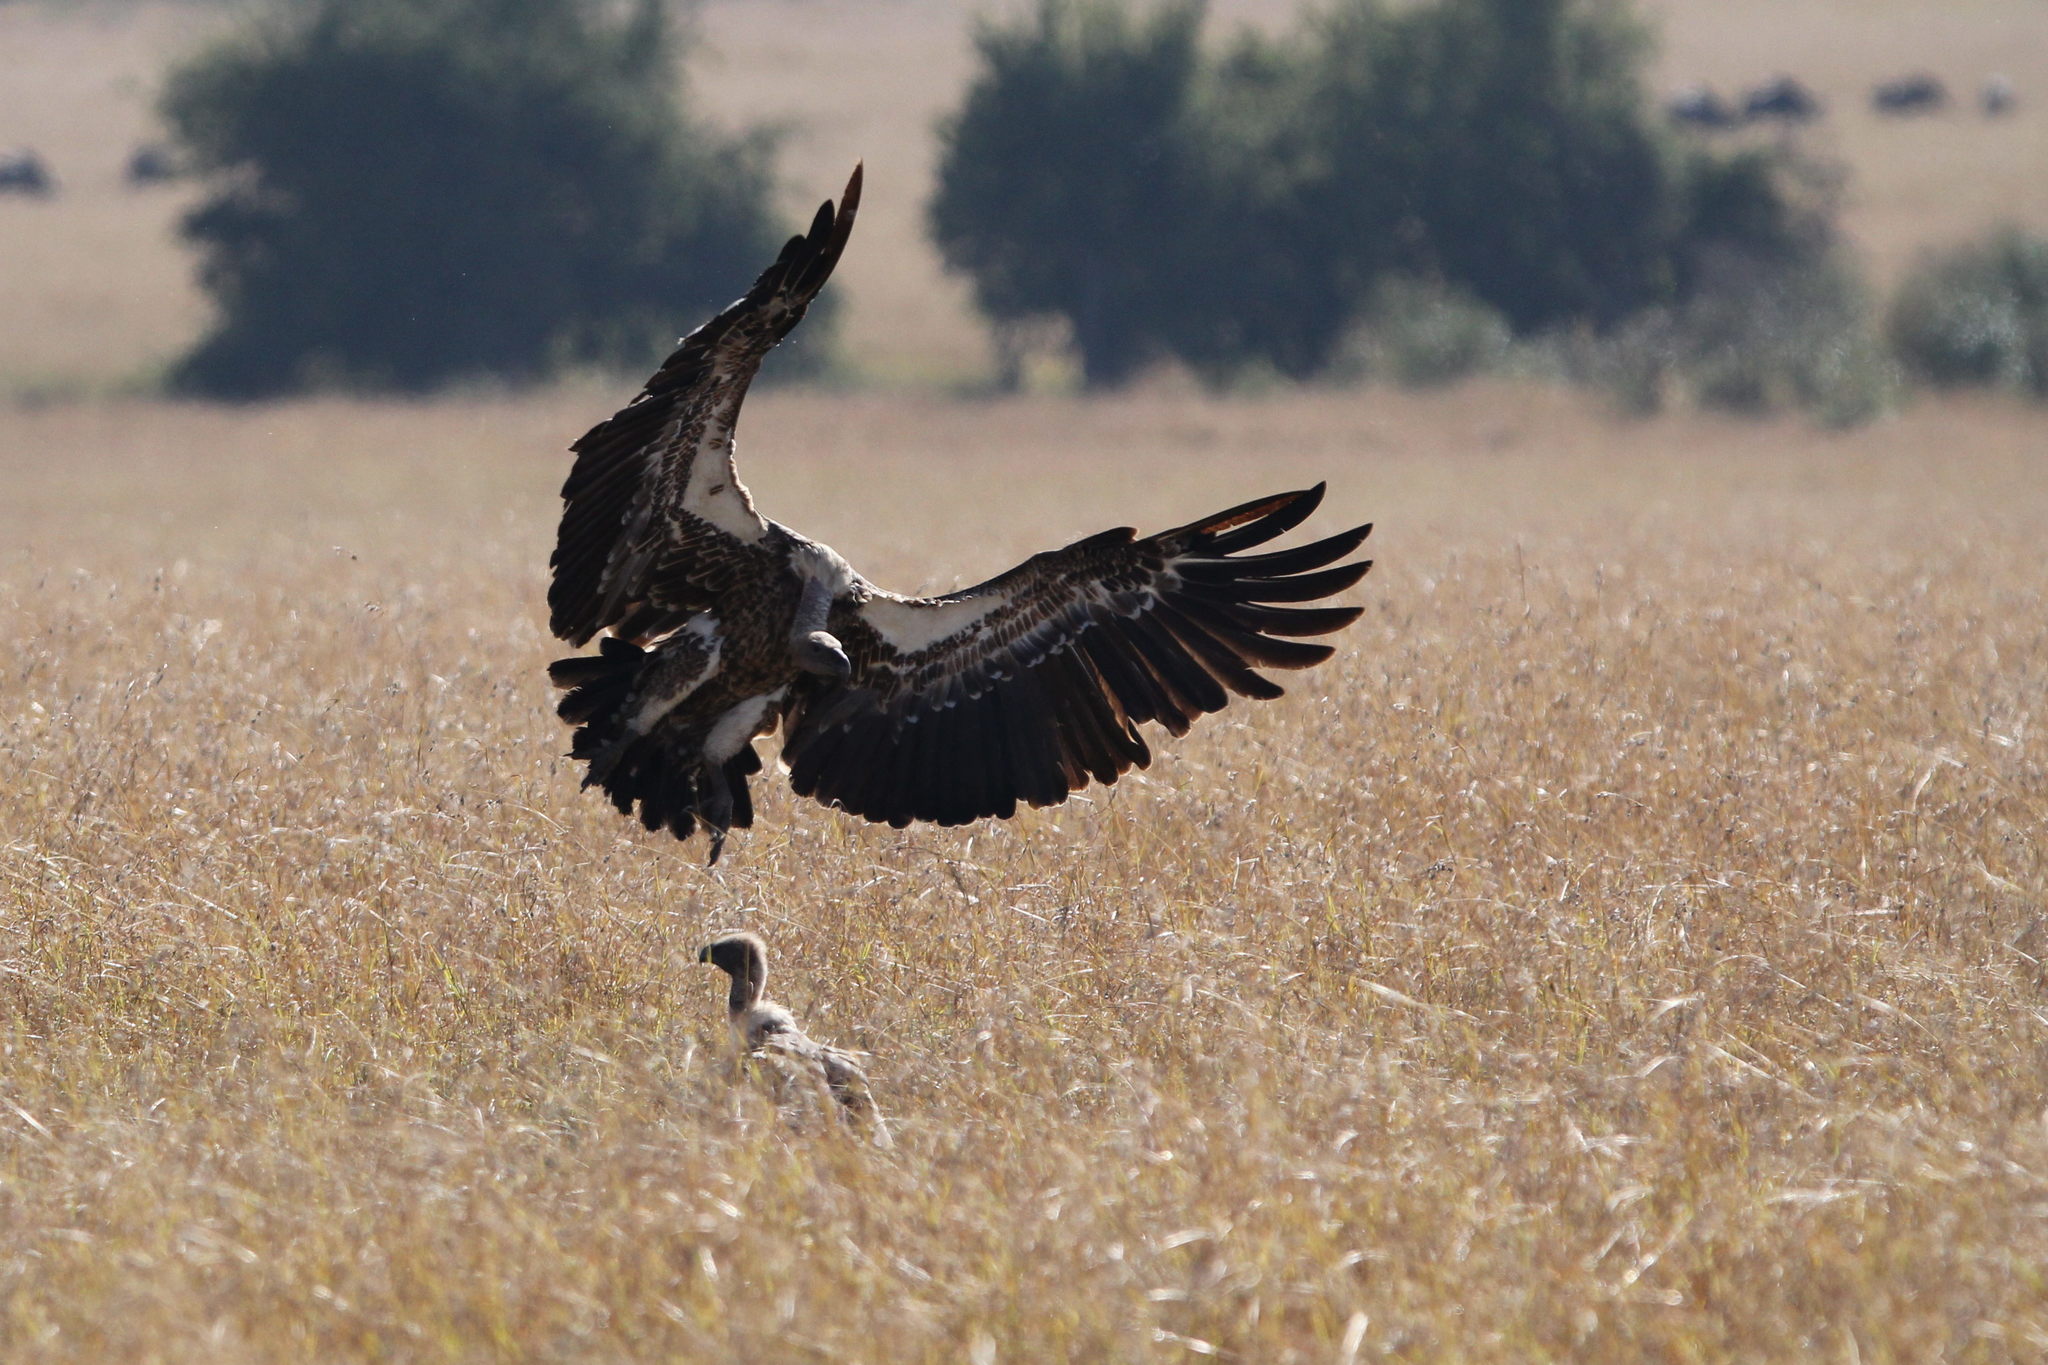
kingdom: Animalia
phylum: Chordata
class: Aves
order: Accipitriformes
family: Accipitridae
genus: Gyps
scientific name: Gyps africanus
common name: White-backed vulture
